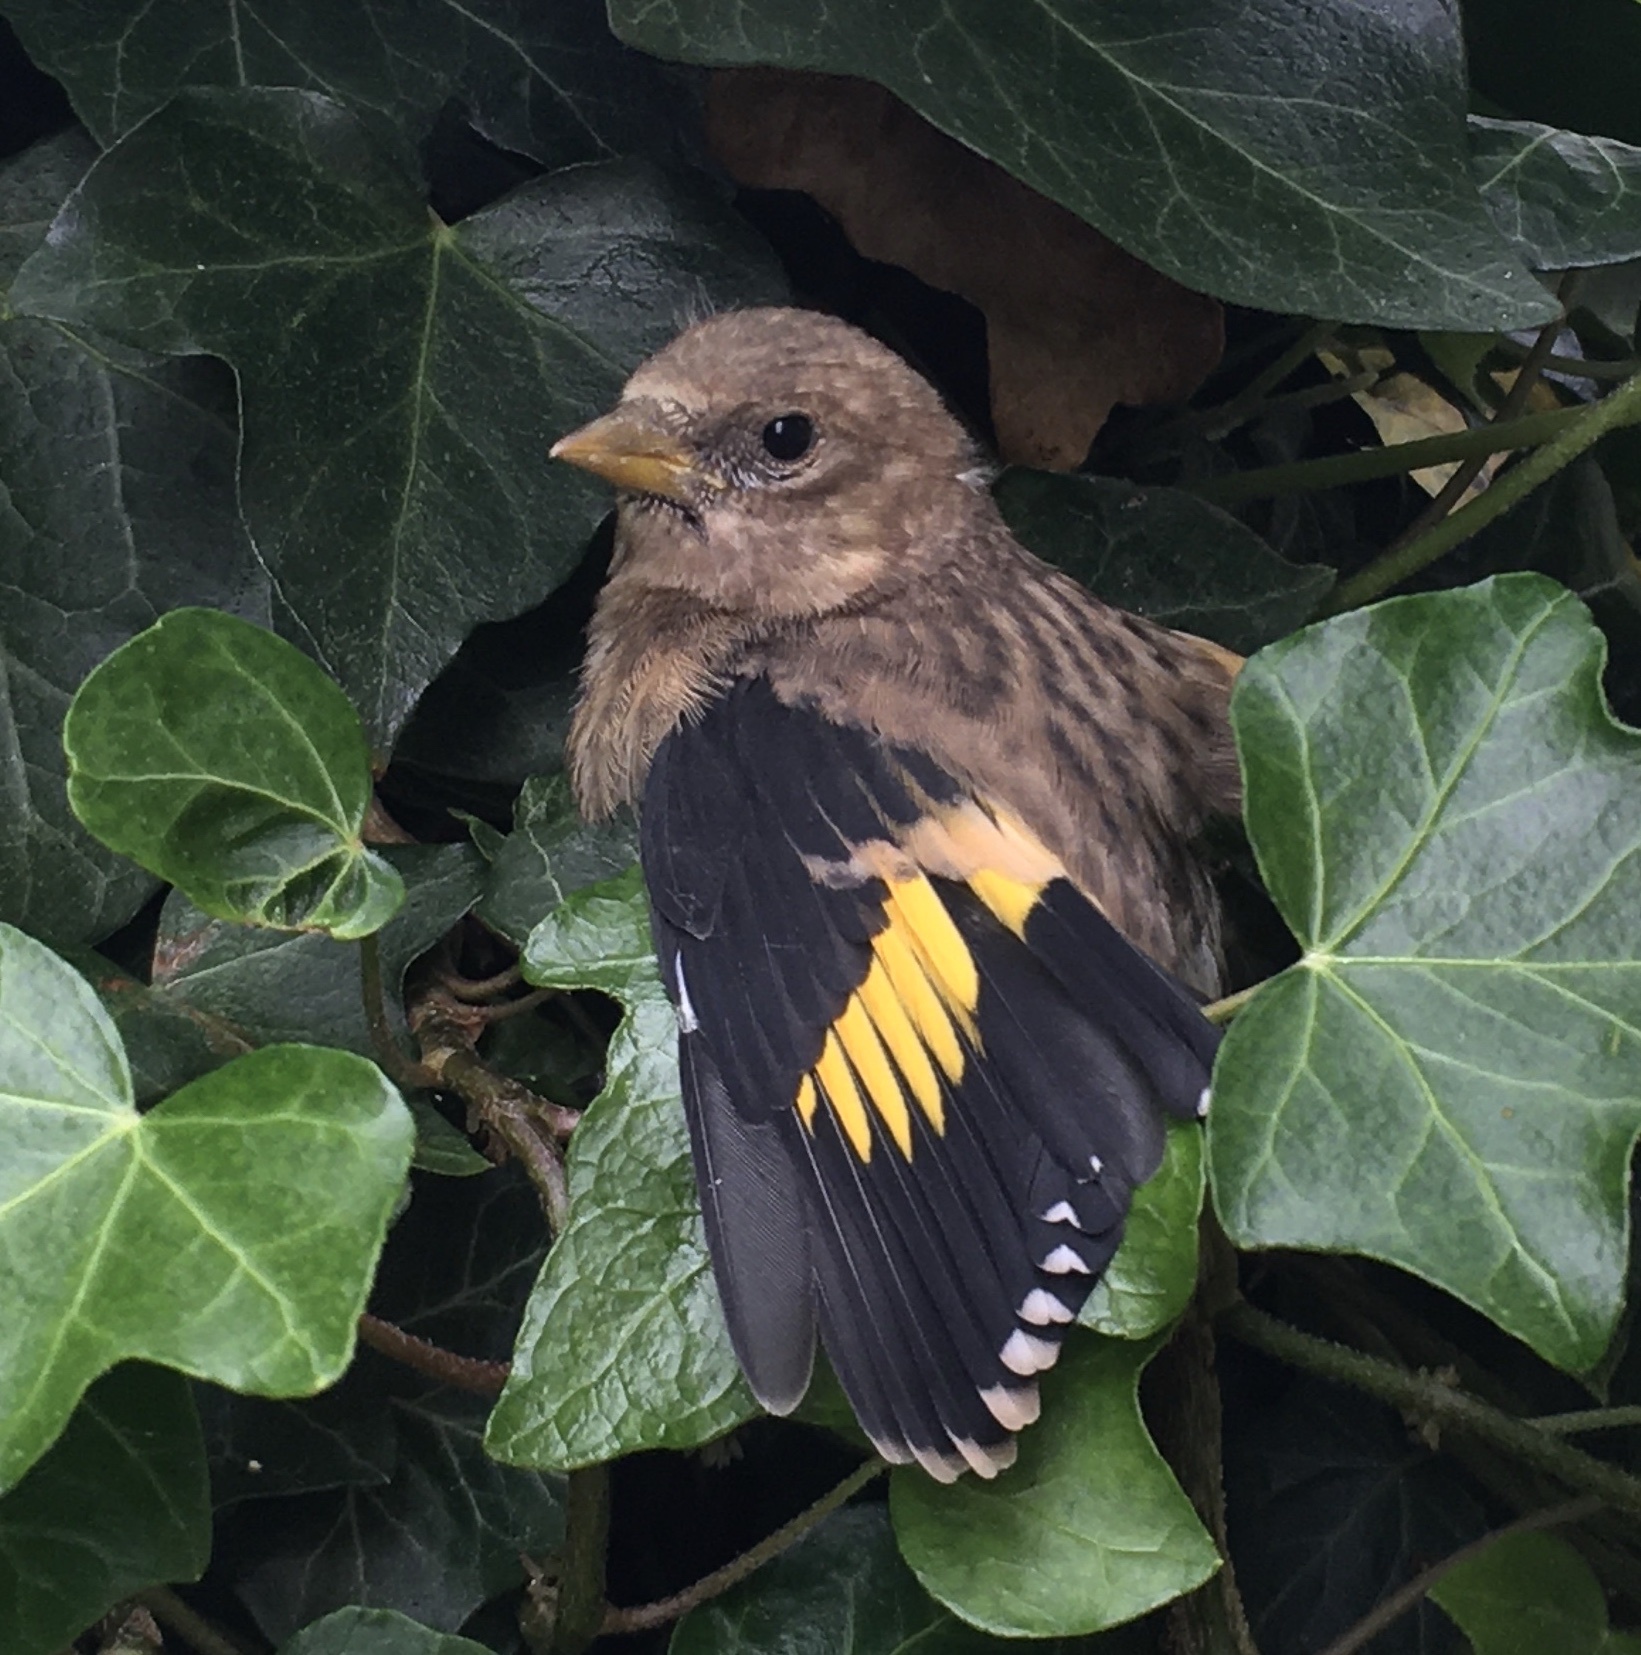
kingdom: Animalia
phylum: Chordata
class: Aves
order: Passeriformes
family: Fringillidae
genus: Carduelis
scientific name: Carduelis carduelis
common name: European goldfinch
